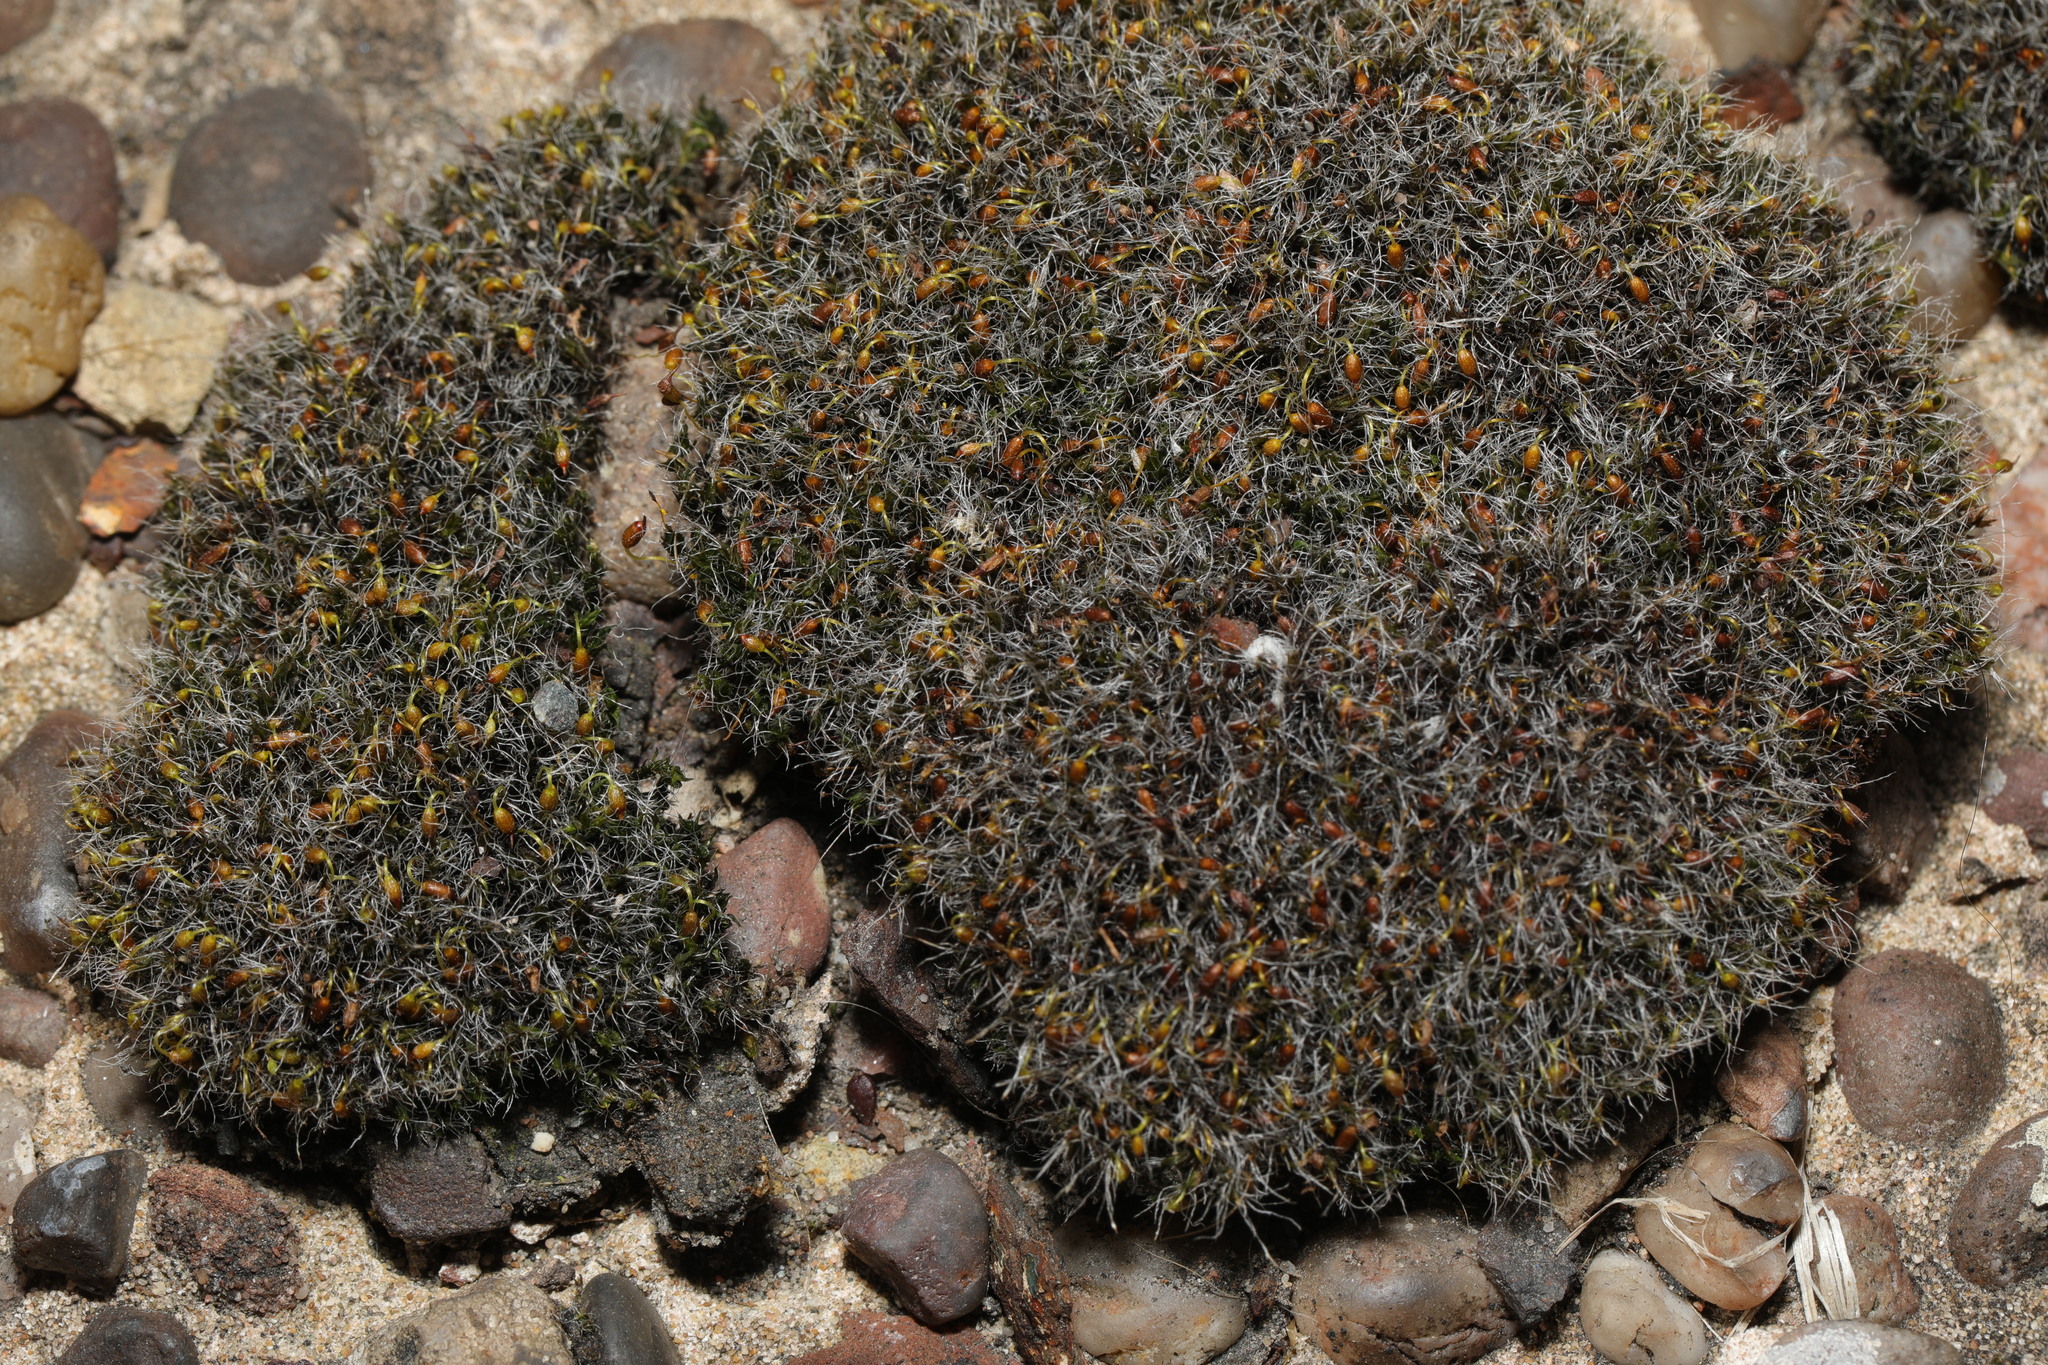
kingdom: Plantae
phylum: Bryophyta
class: Bryopsida
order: Grimmiales
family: Grimmiaceae
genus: Grimmia
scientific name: Grimmia pulvinata
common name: Grey-cushioned grimmia
